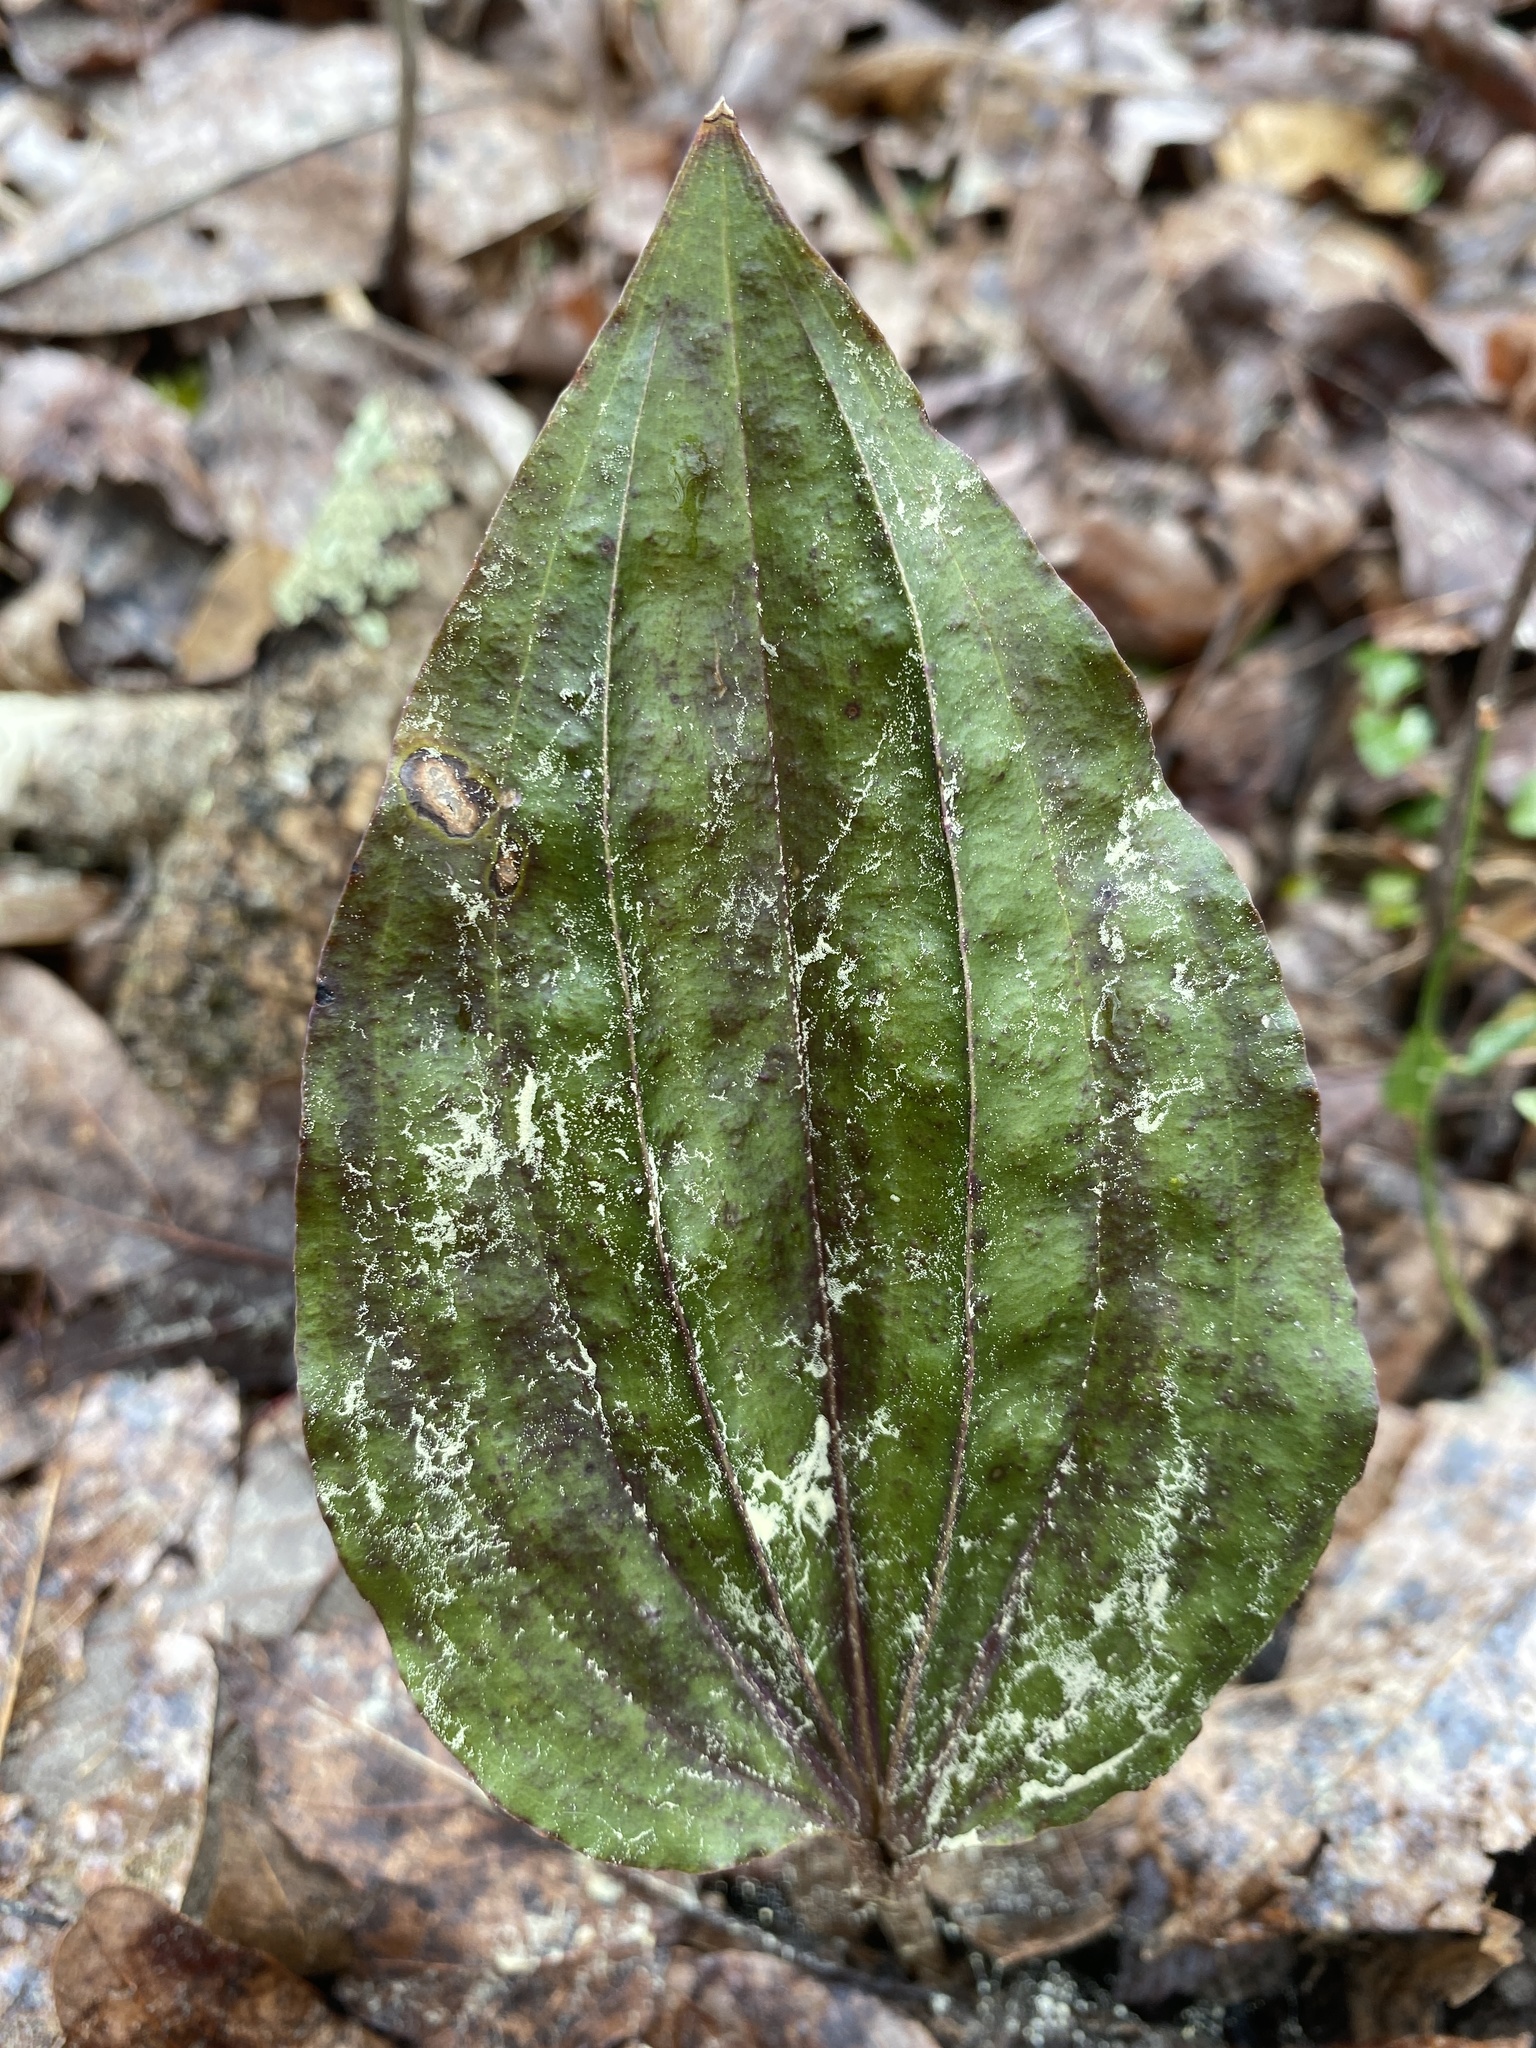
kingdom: Plantae
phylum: Tracheophyta
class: Liliopsida
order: Asparagales
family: Orchidaceae
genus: Tipularia
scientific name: Tipularia discolor
